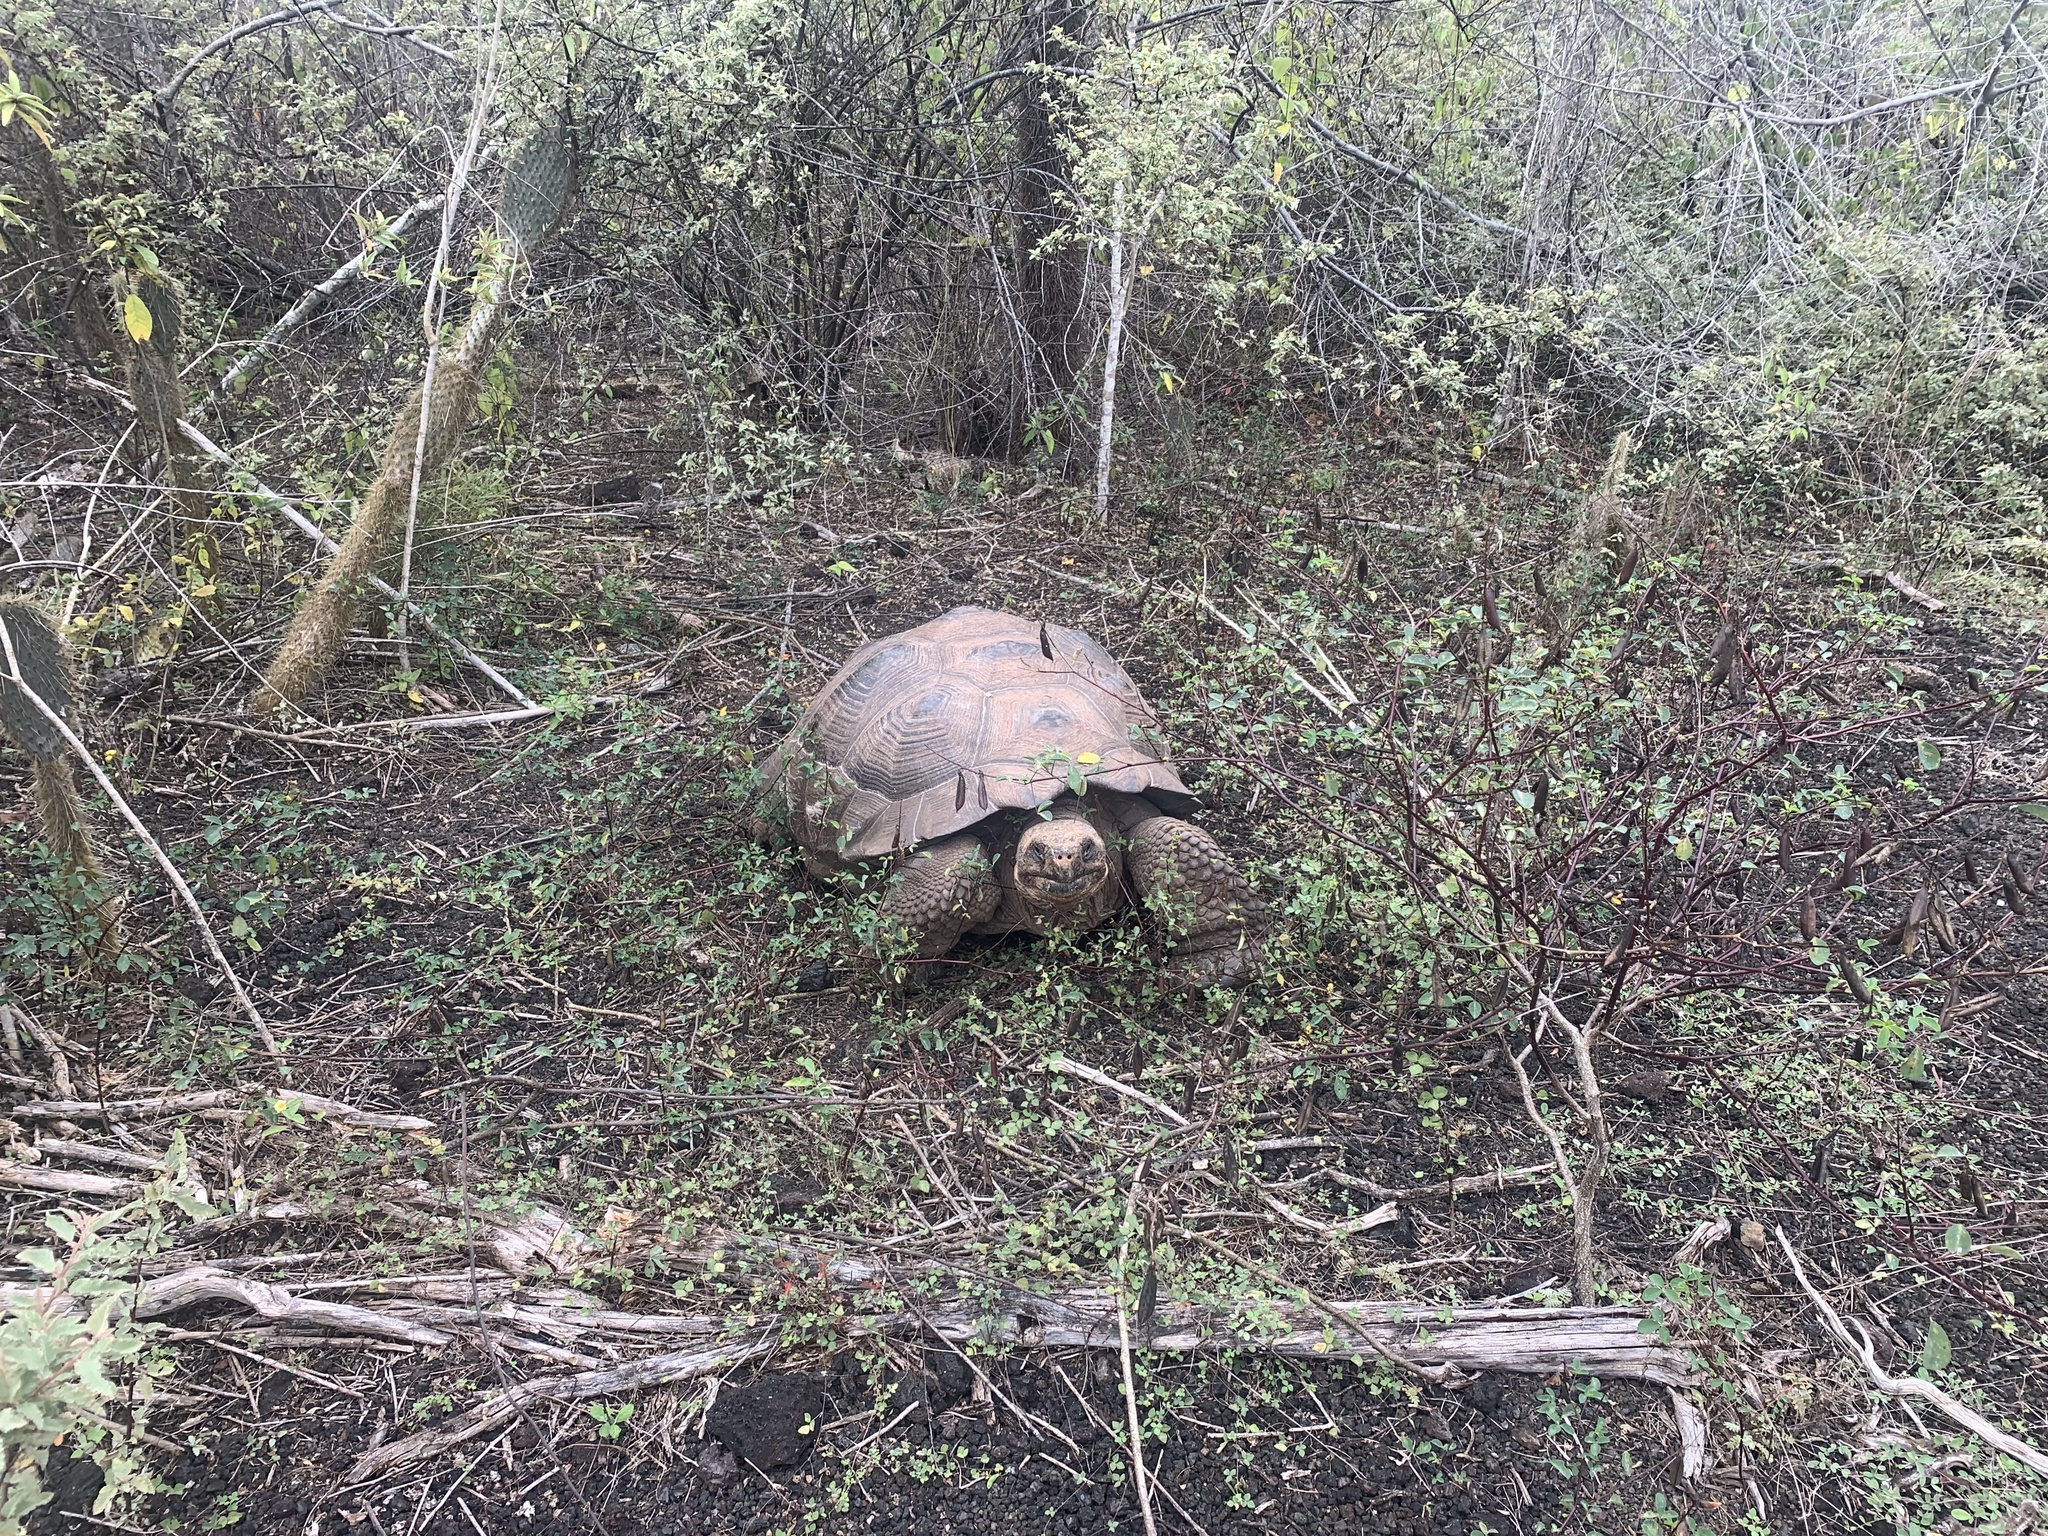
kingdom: Animalia
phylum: Chordata
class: Testudines
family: Testudinidae
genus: Chelonoidis
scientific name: Chelonoidis guntheri
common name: Sierra negra giant tortoise
